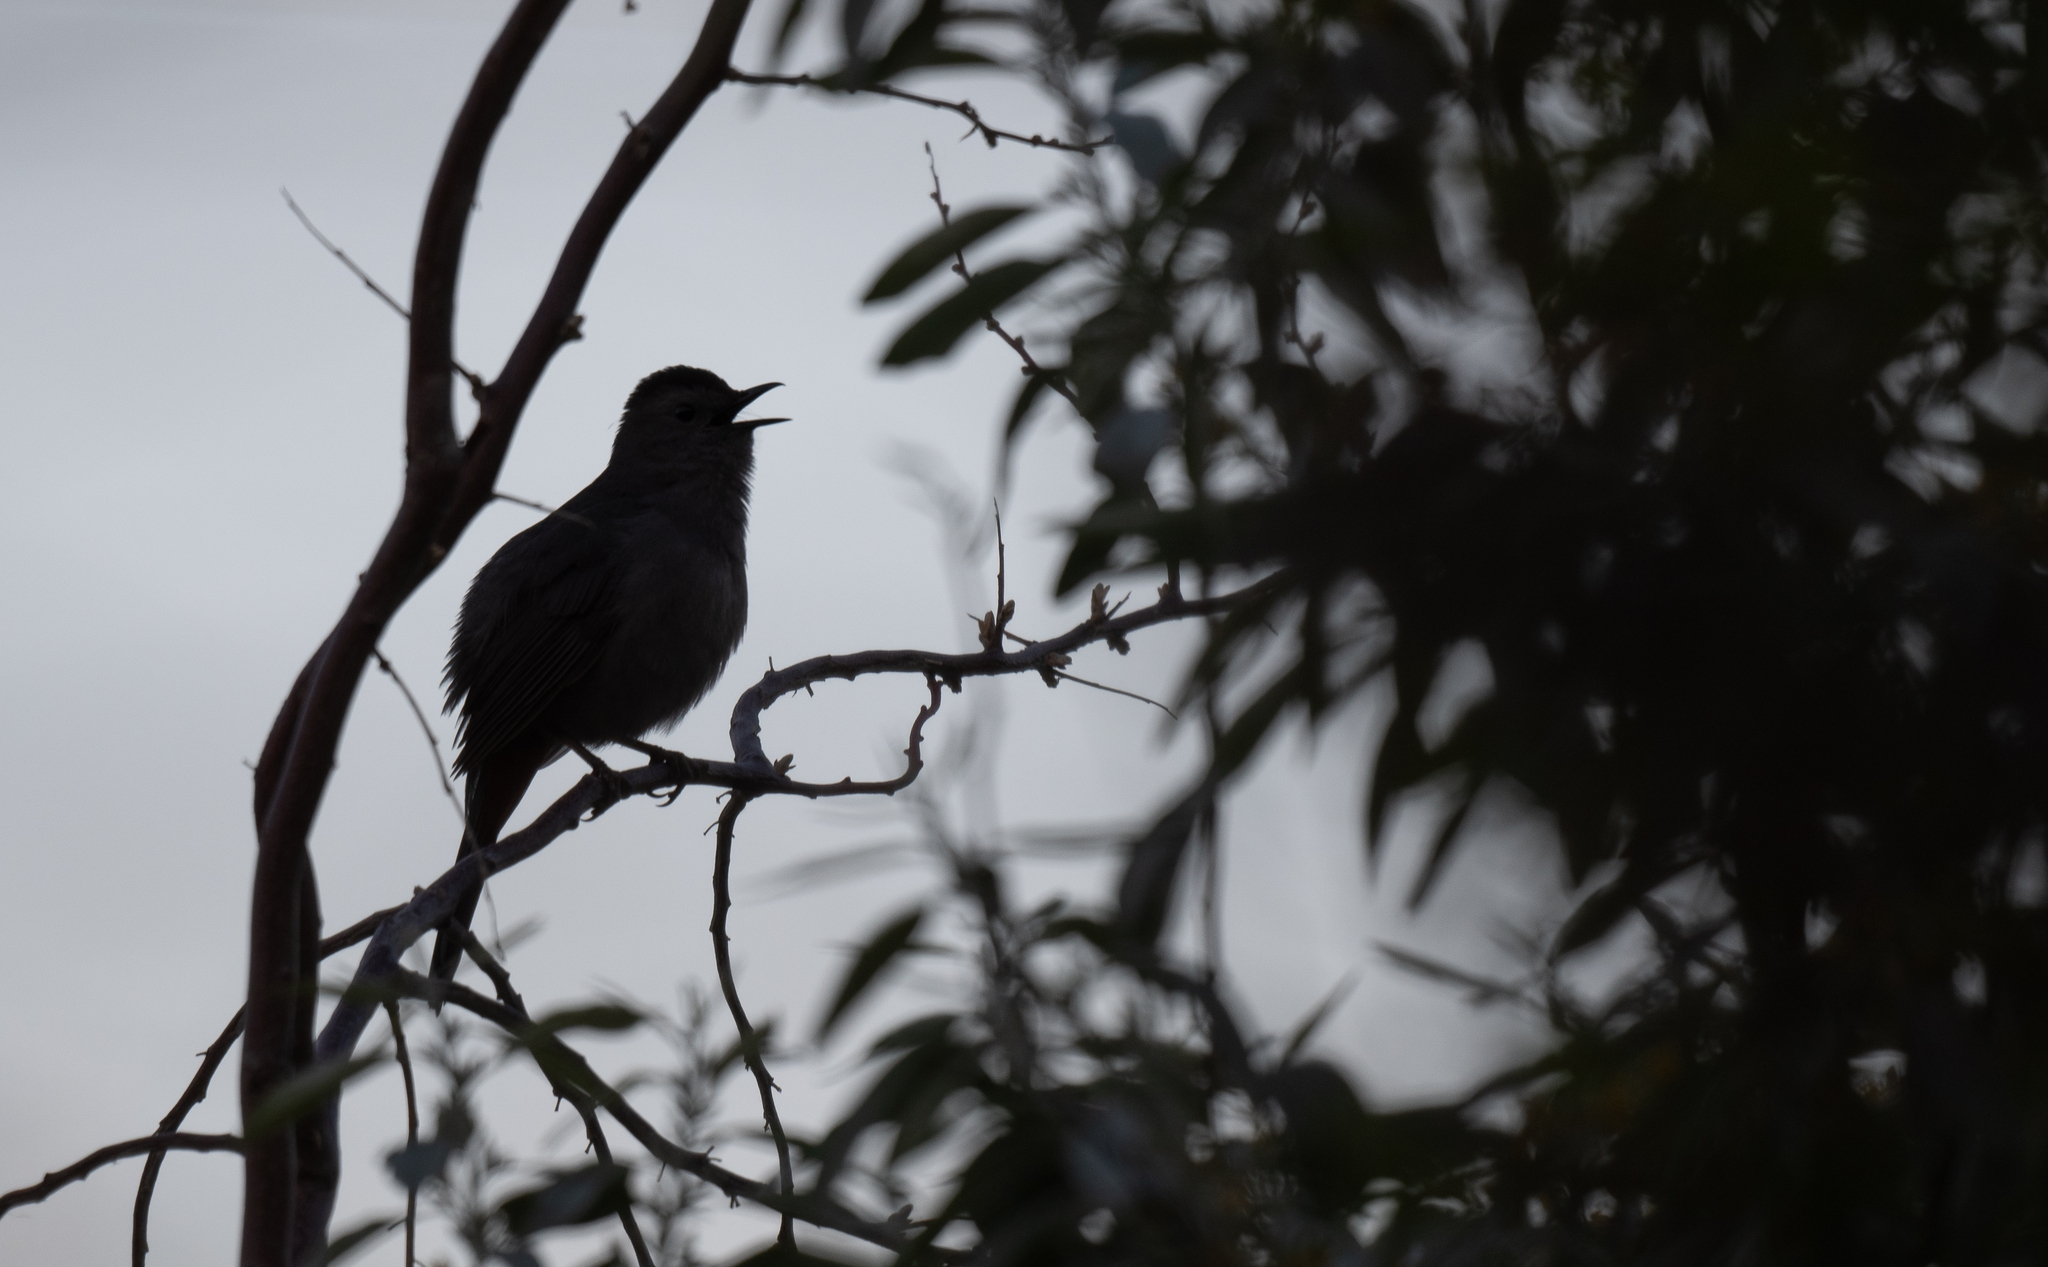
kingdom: Animalia
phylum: Chordata
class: Aves
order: Passeriformes
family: Mimidae
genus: Dumetella
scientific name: Dumetella carolinensis
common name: Gray catbird
